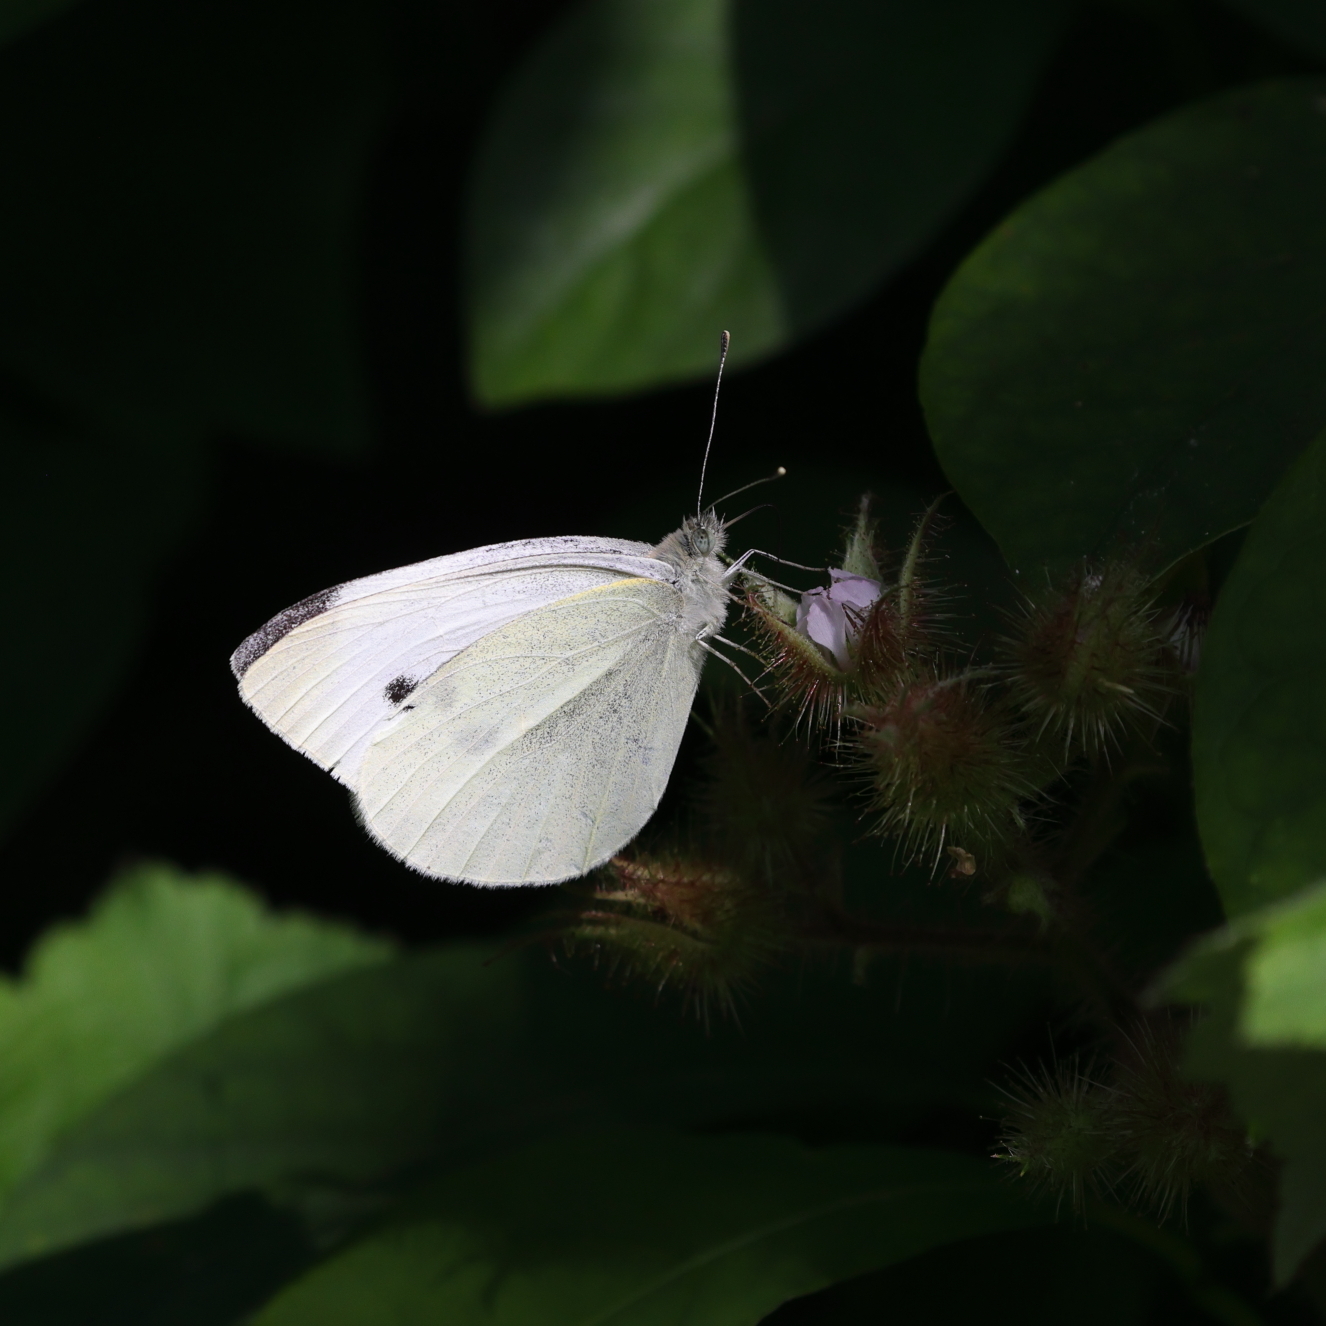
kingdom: Animalia
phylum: Arthropoda
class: Insecta
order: Lepidoptera
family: Pieridae
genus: Pieris
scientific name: Pieris rapae
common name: Small white
